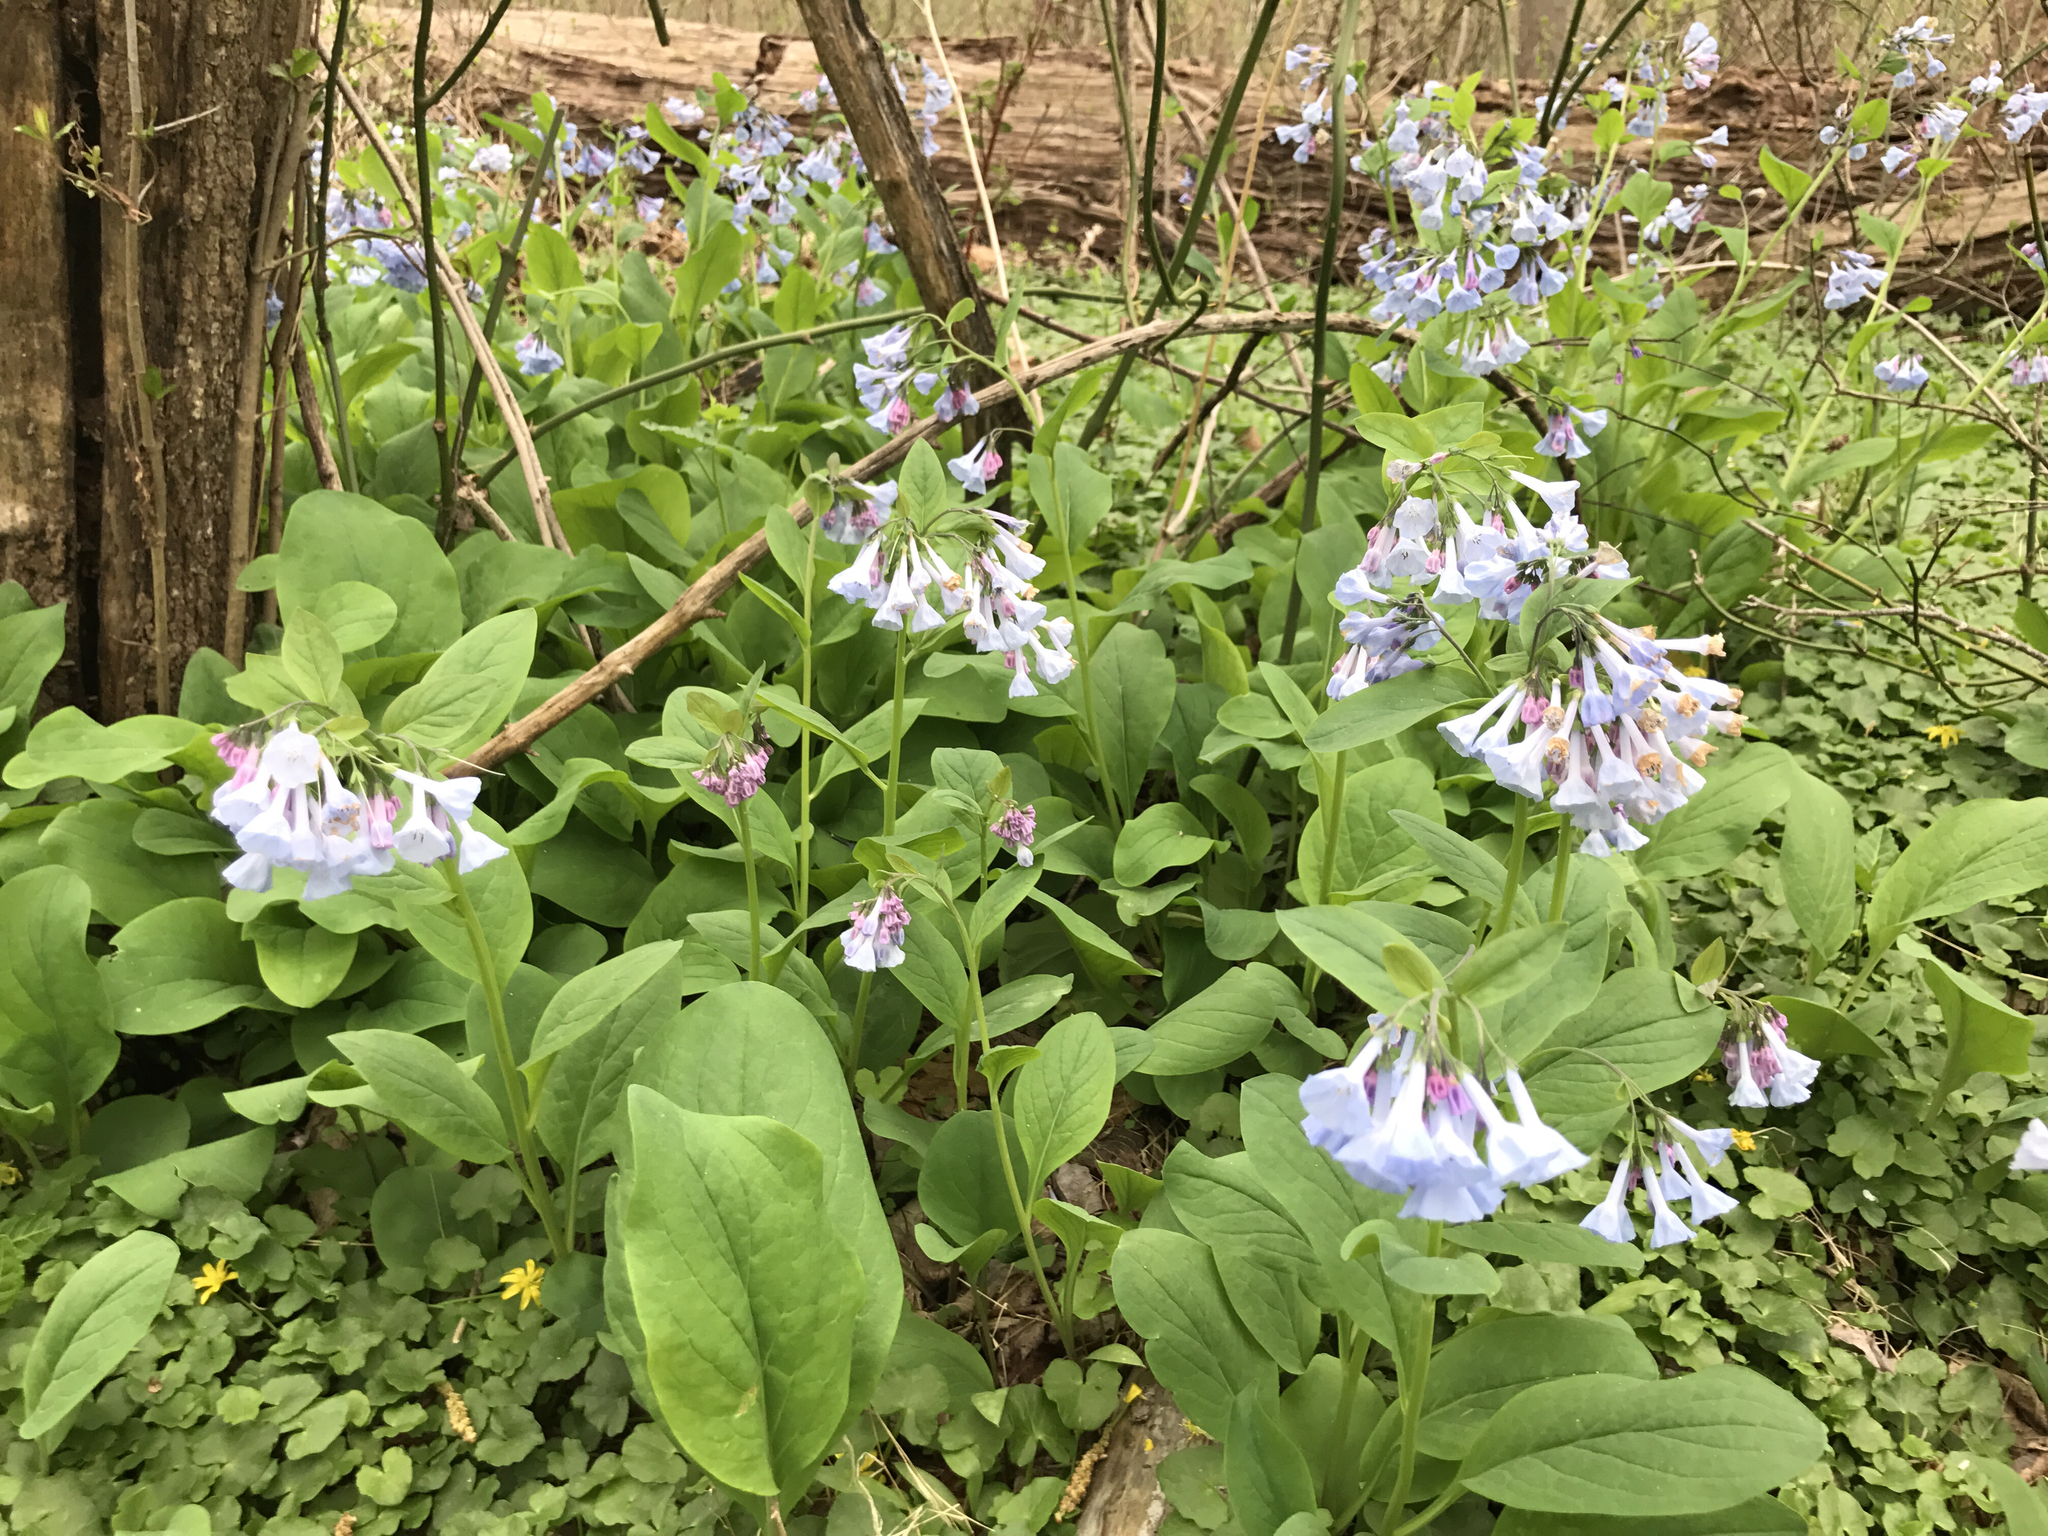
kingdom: Plantae
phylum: Tracheophyta
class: Magnoliopsida
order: Boraginales
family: Boraginaceae
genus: Mertensia
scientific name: Mertensia virginica
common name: Virginia bluebells
